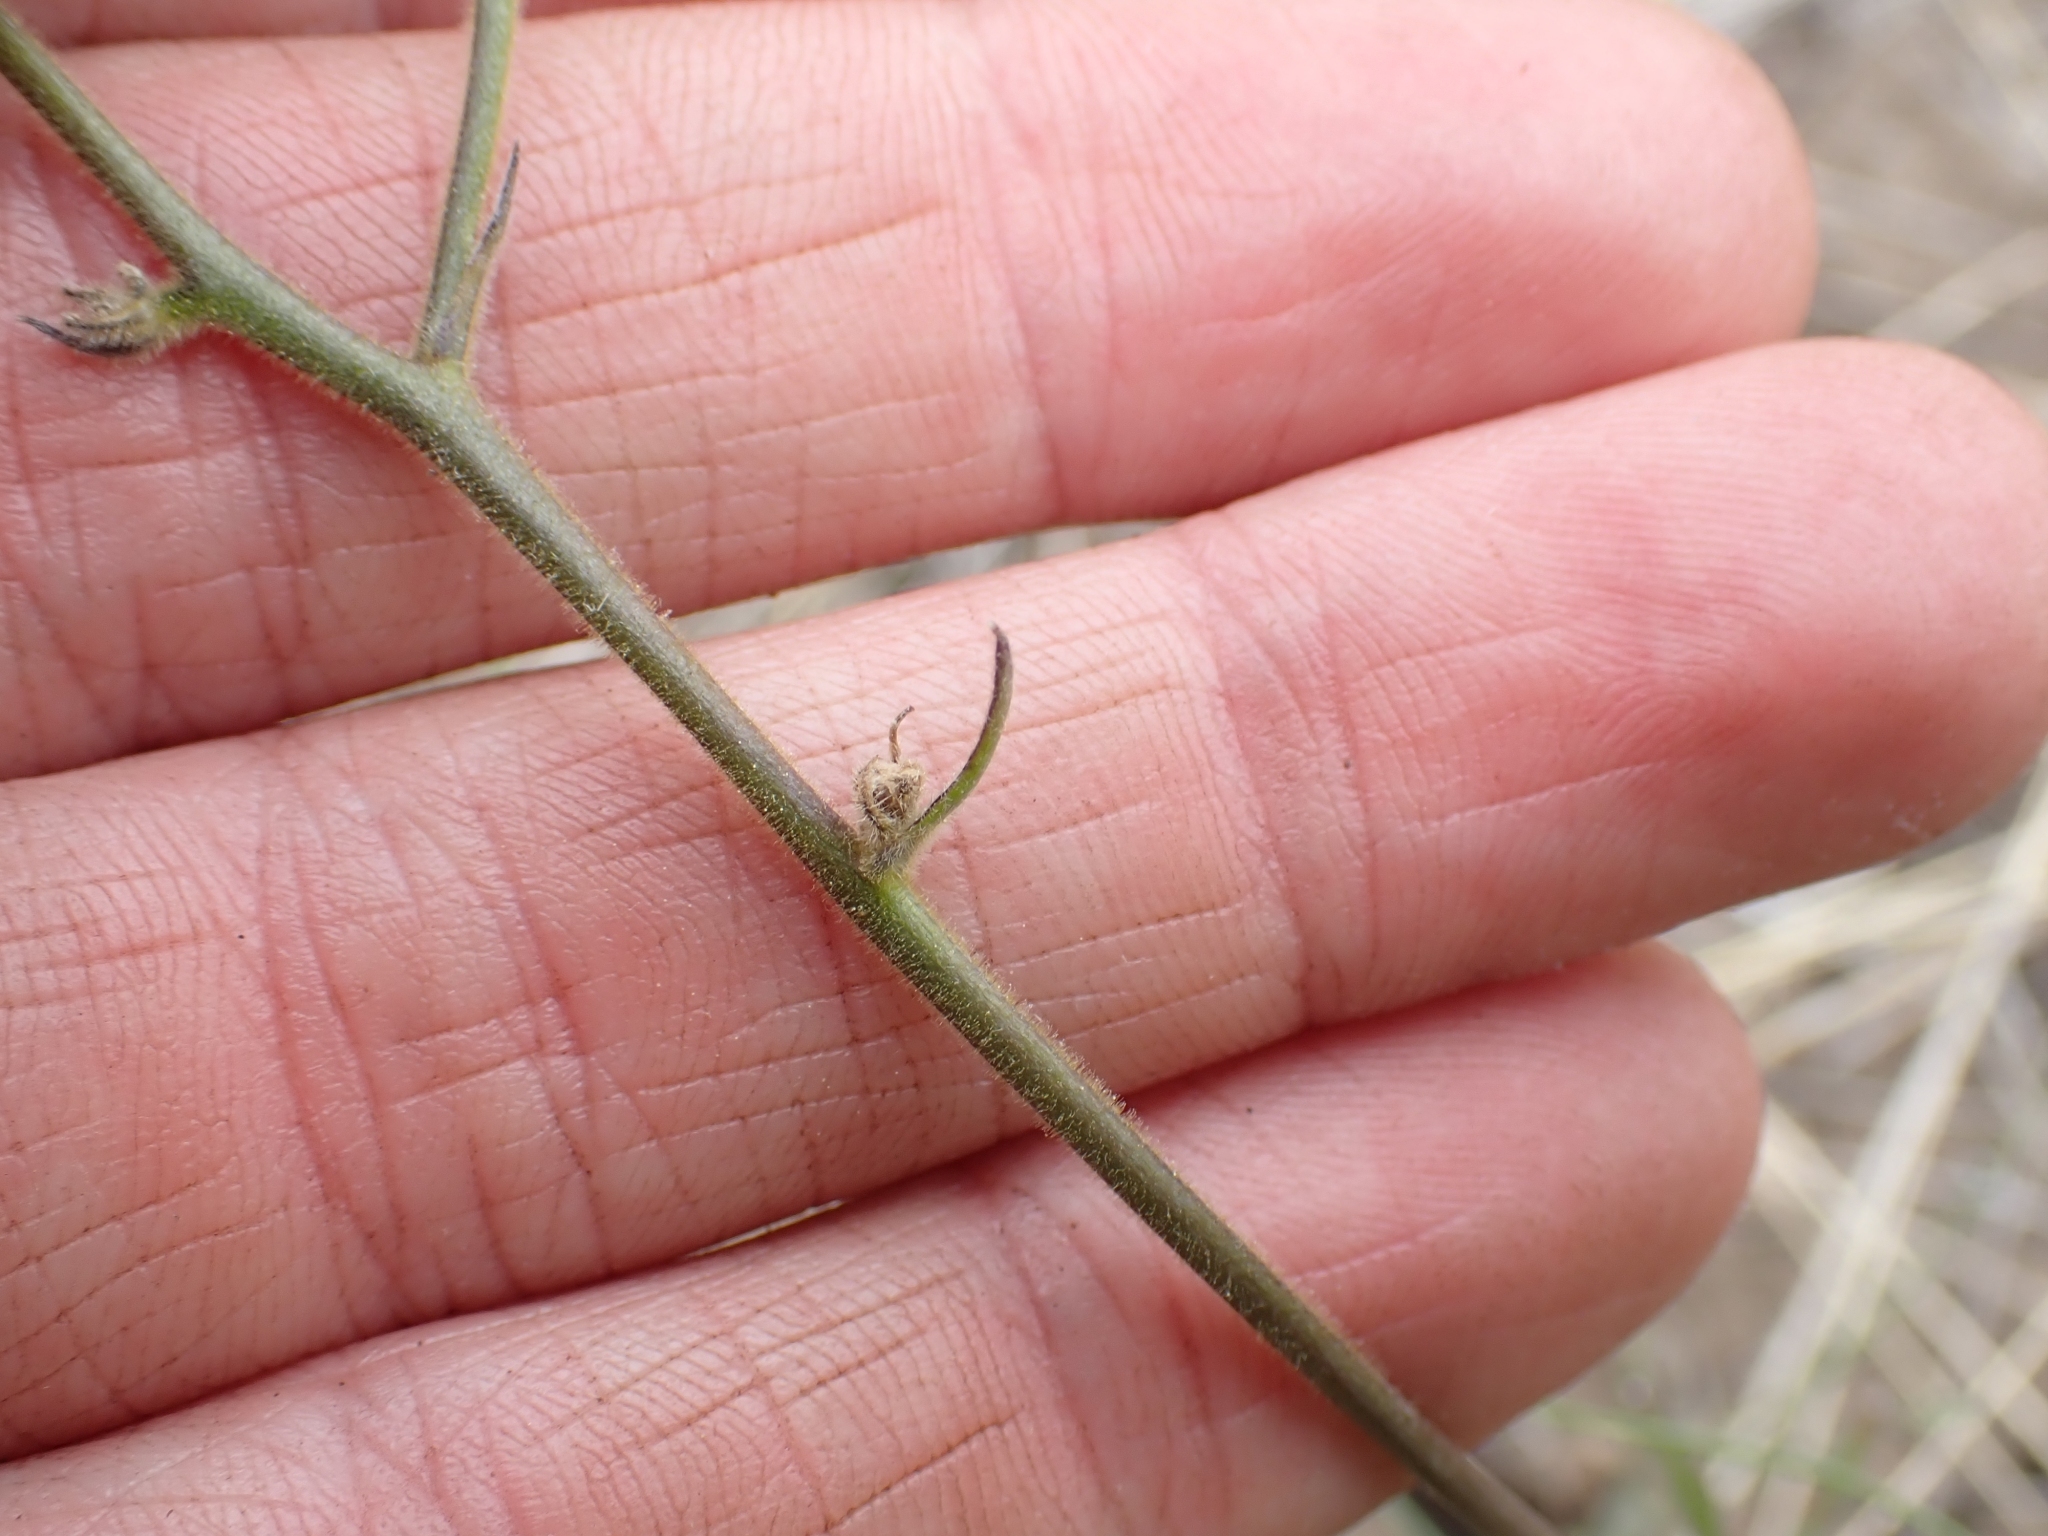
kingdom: Plantae
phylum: Tracheophyta
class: Magnoliopsida
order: Ranunculales
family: Ranunculaceae
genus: Delphinium
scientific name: Delphinium nuttallianum
